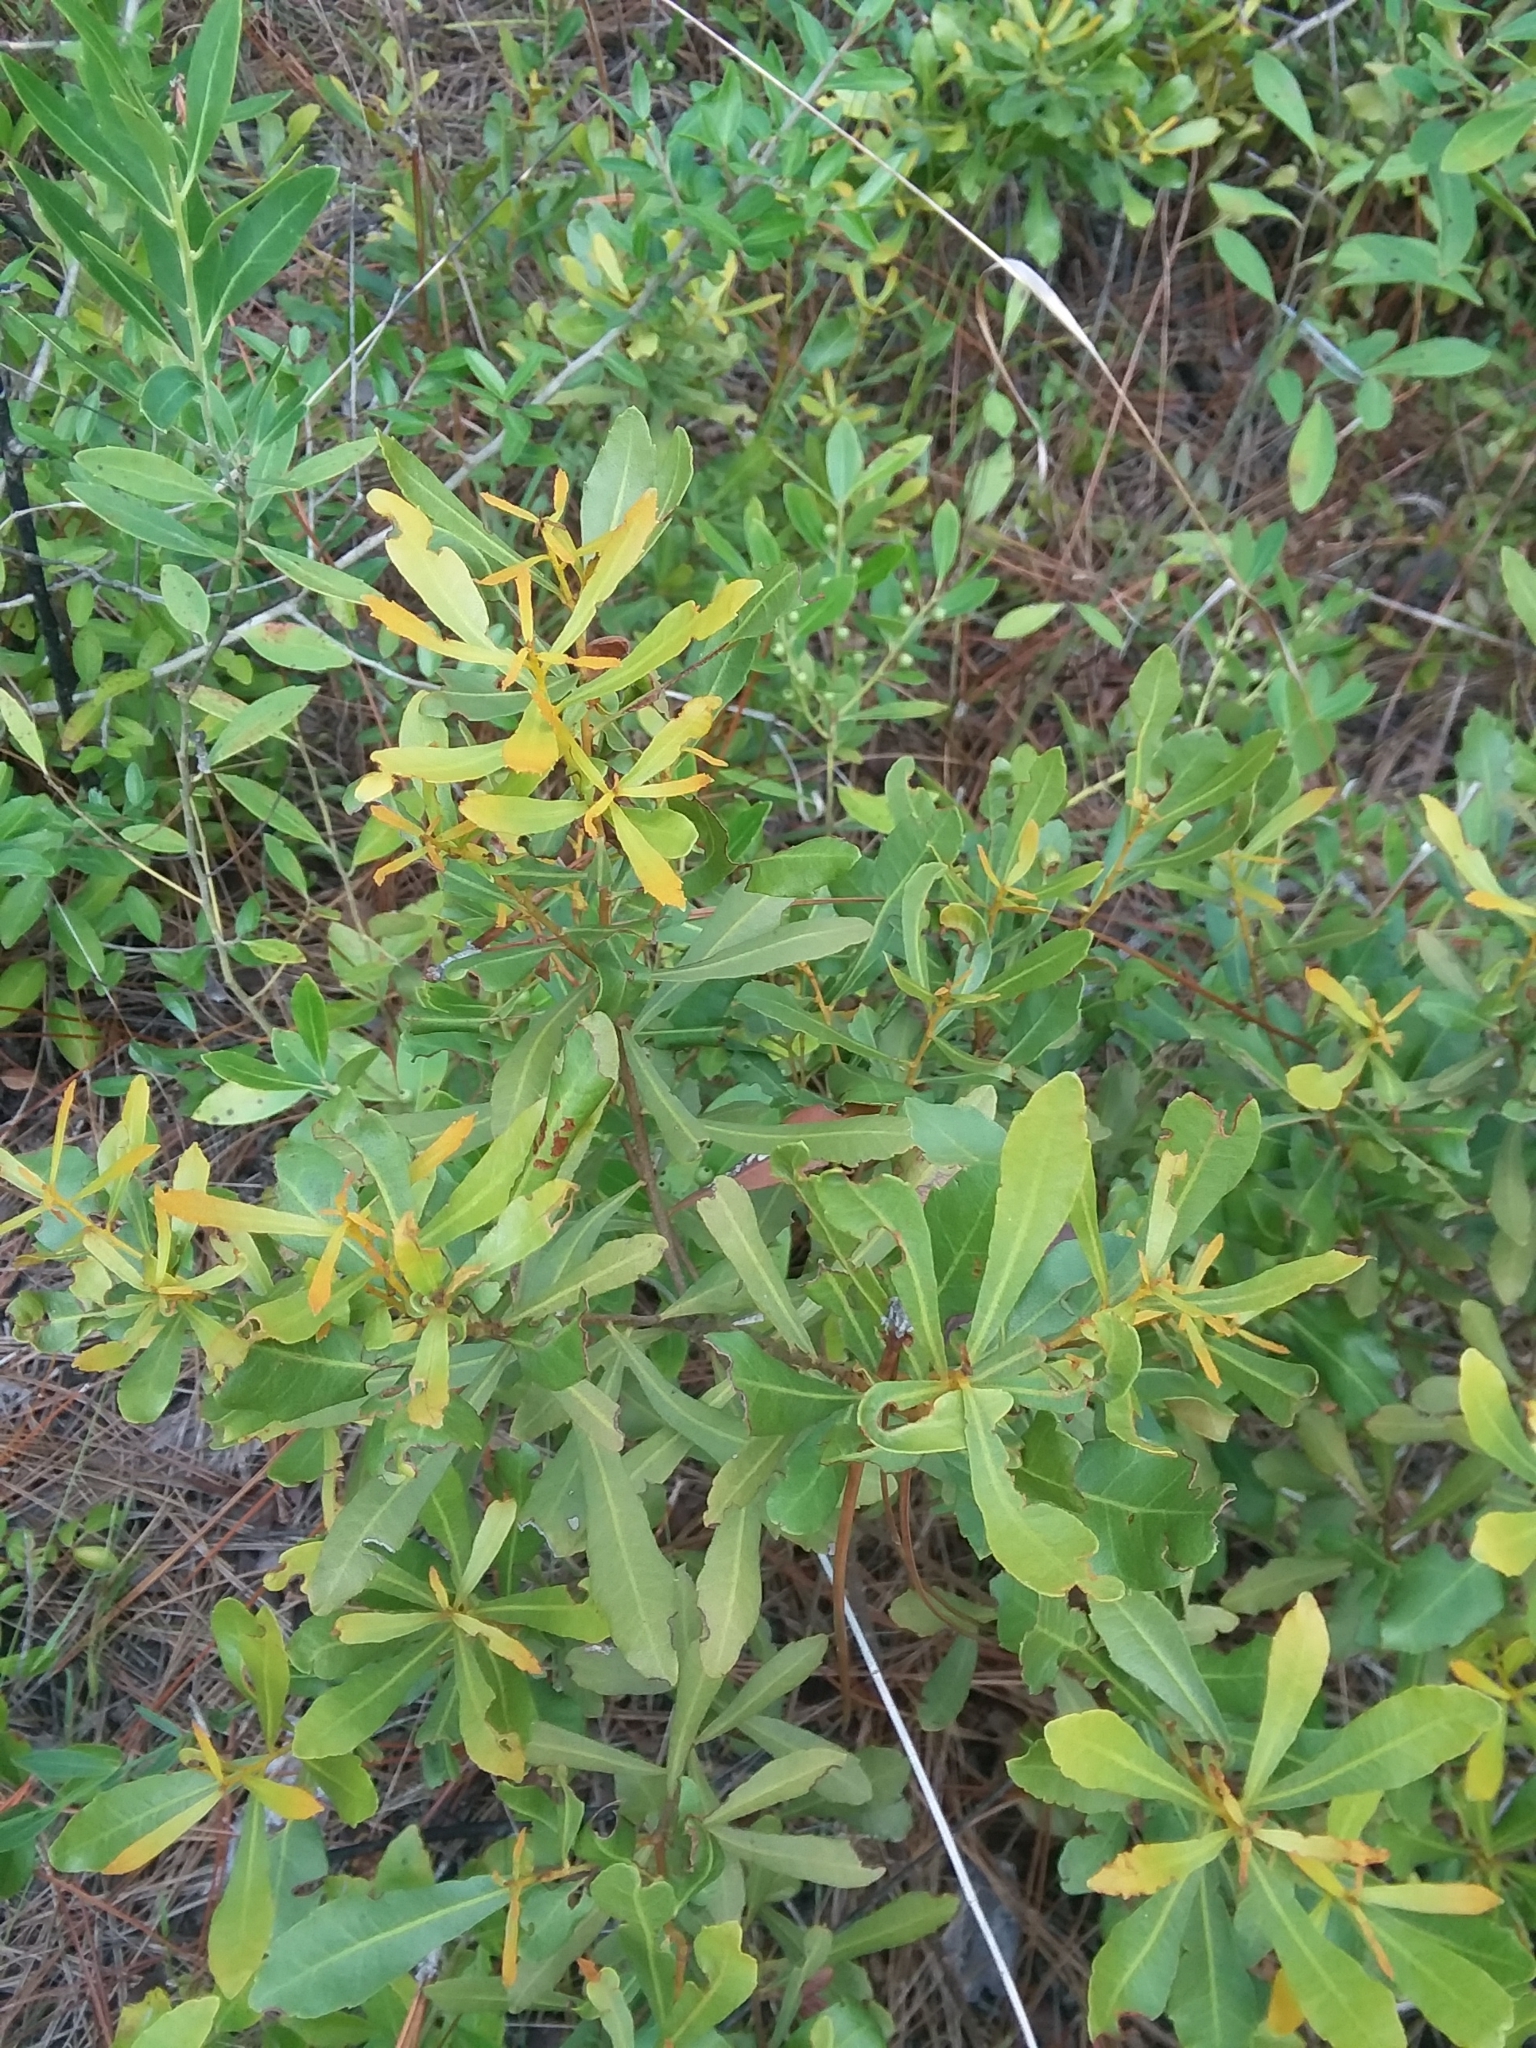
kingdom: Plantae
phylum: Tracheophyta
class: Magnoliopsida
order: Fagales
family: Myricaceae
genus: Morella
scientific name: Morella cerifera
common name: Wax myrtle
